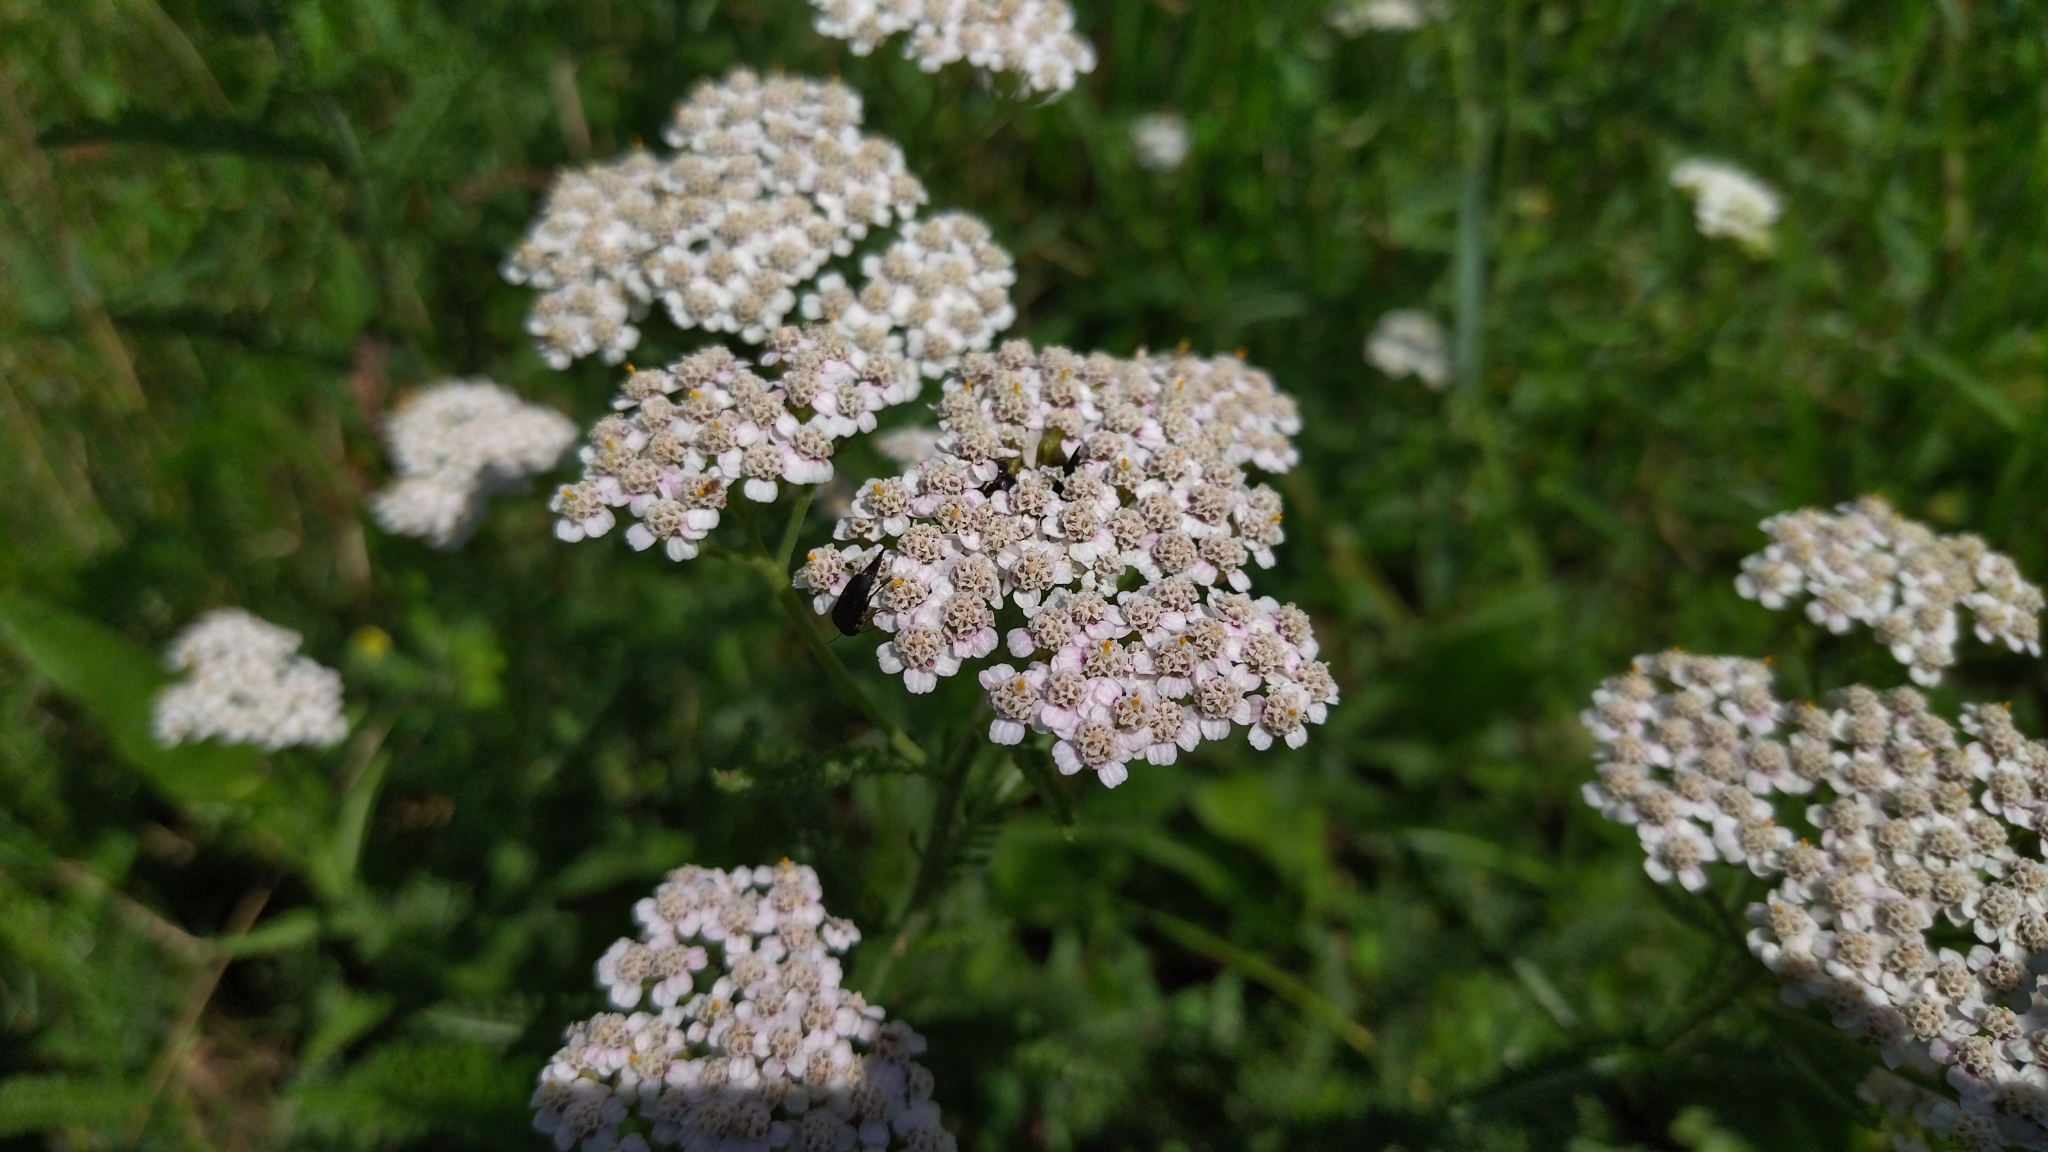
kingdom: Plantae
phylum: Tracheophyta
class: Magnoliopsida
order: Asterales
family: Asteraceae
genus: Achillea
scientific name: Achillea millefolium
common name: Yarrow
